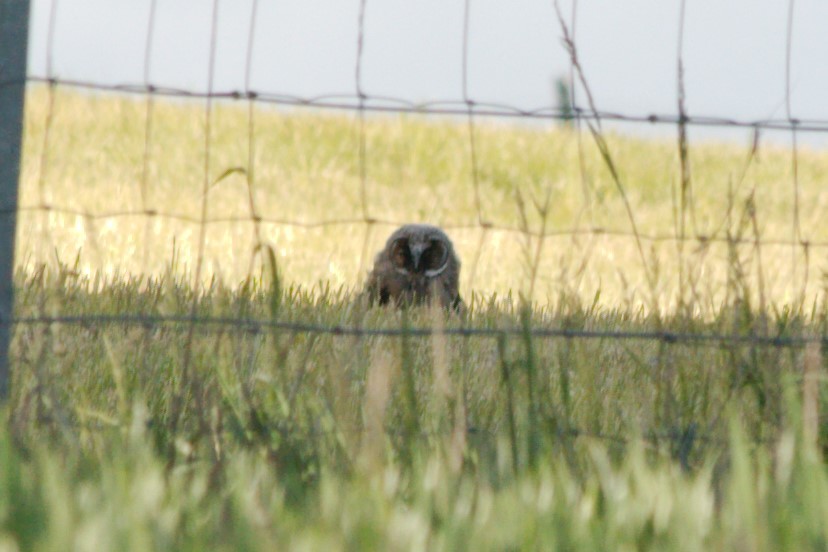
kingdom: Animalia
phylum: Chordata
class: Aves
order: Strigiformes
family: Strigidae
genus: Asio
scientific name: Asio otus
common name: Long-eared owl
